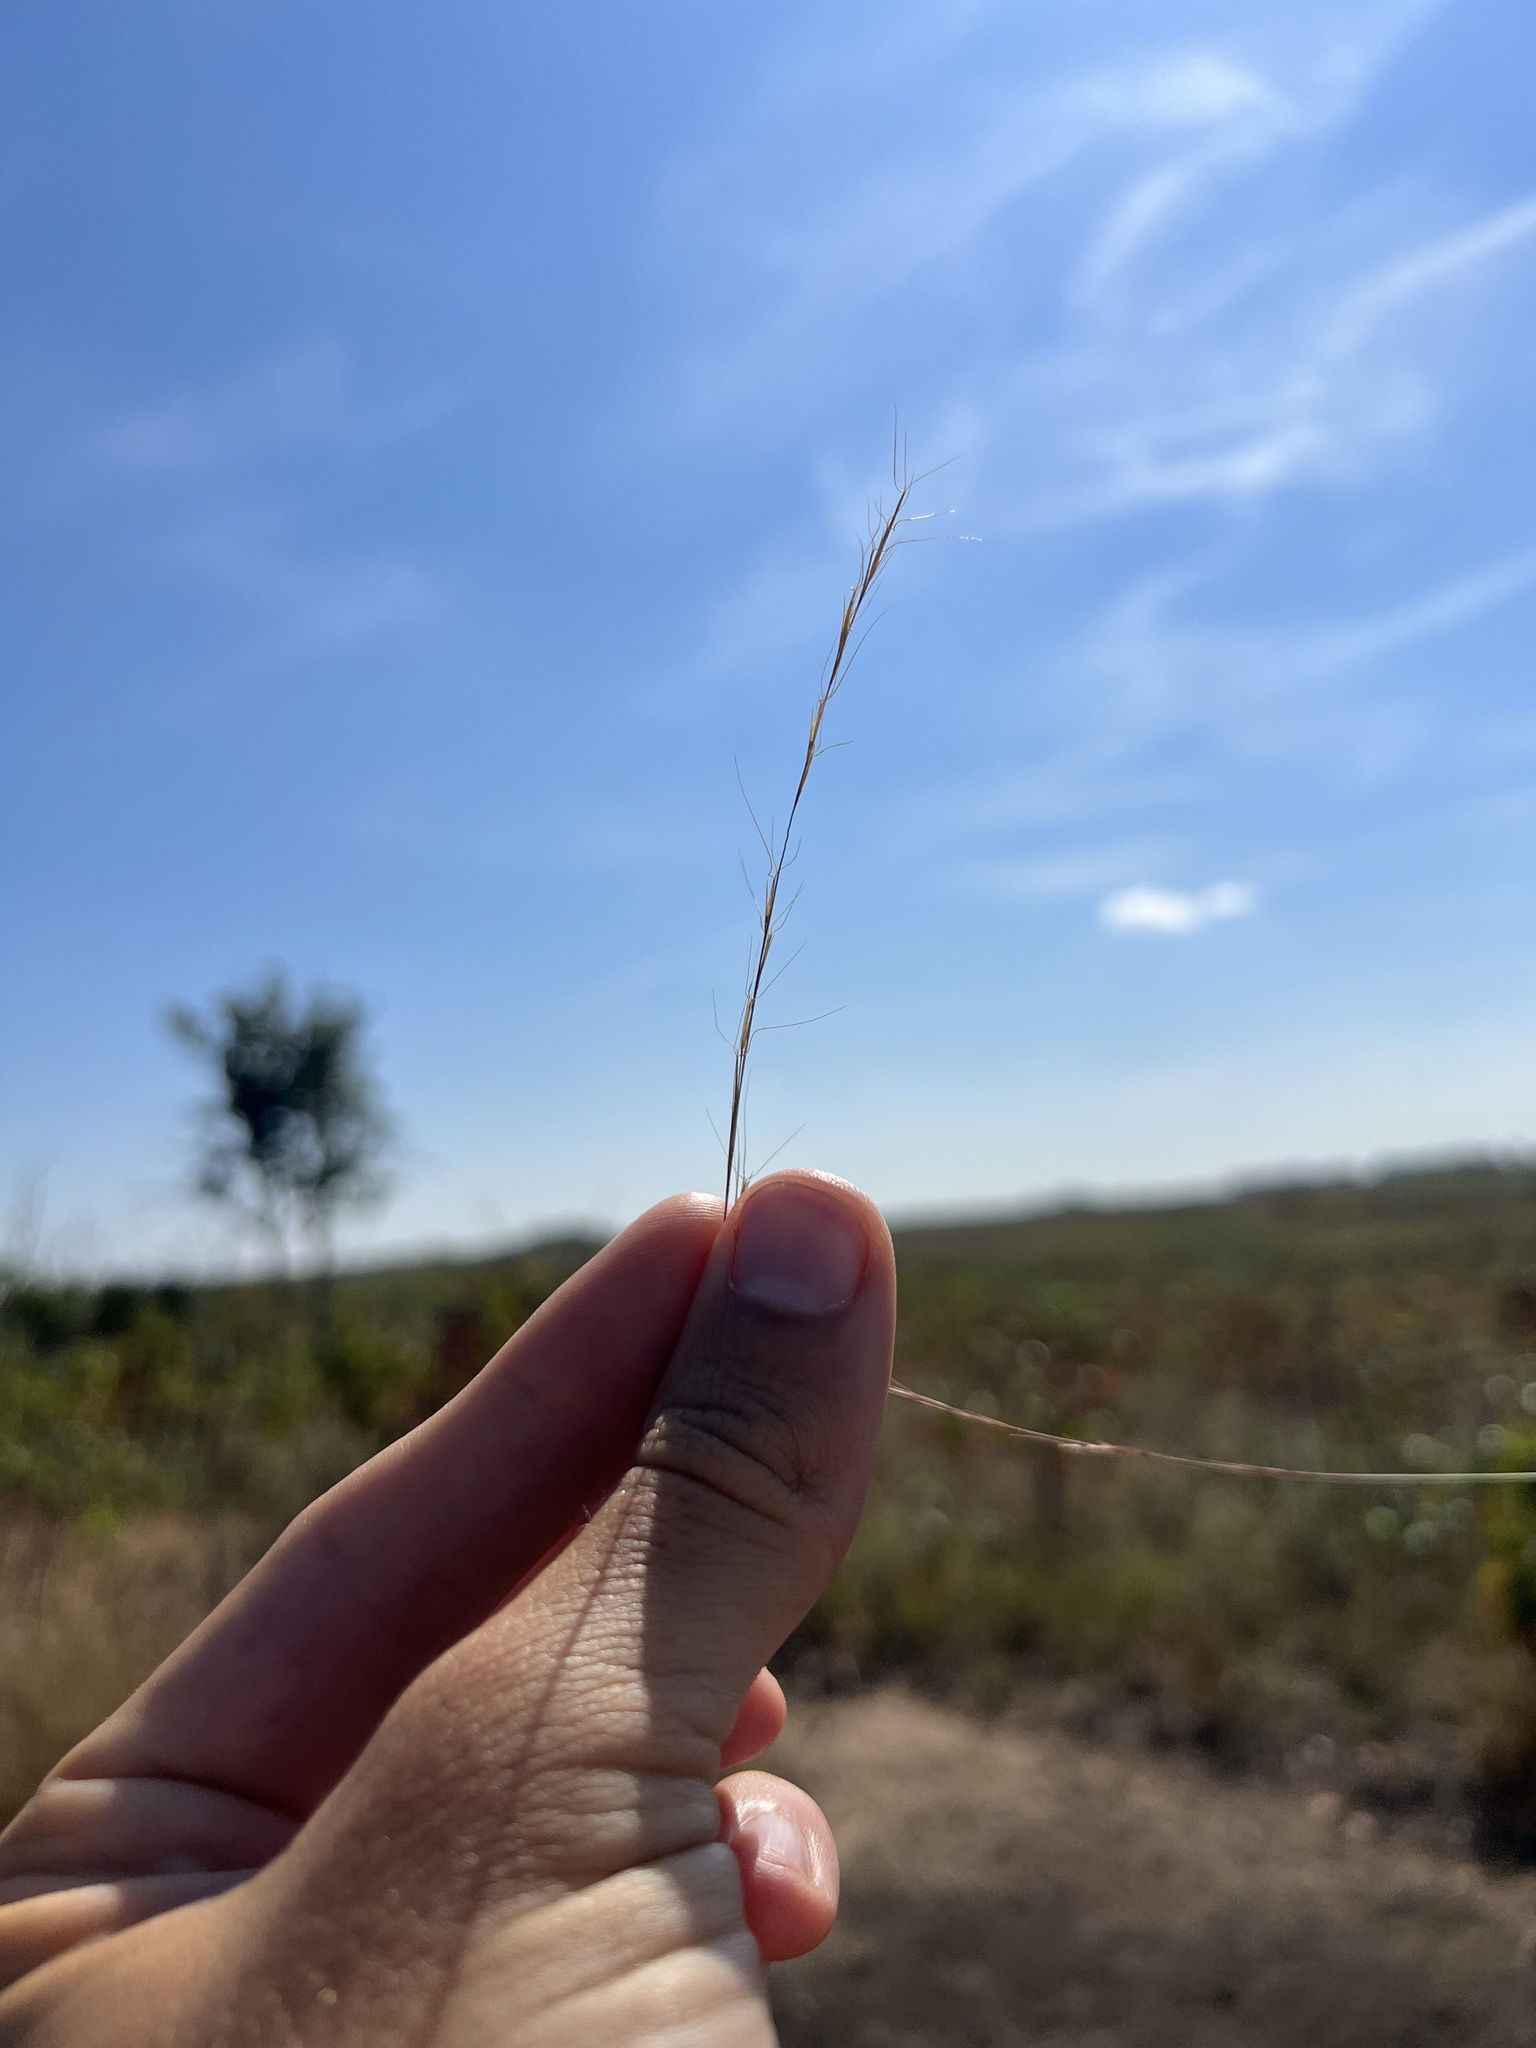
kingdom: Plantae
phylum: Tracheophyta
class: Liliopsida
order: Poales
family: Poaceae
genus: Aristida
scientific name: Aristida longespica
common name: Long-spiked triple-awned grass
